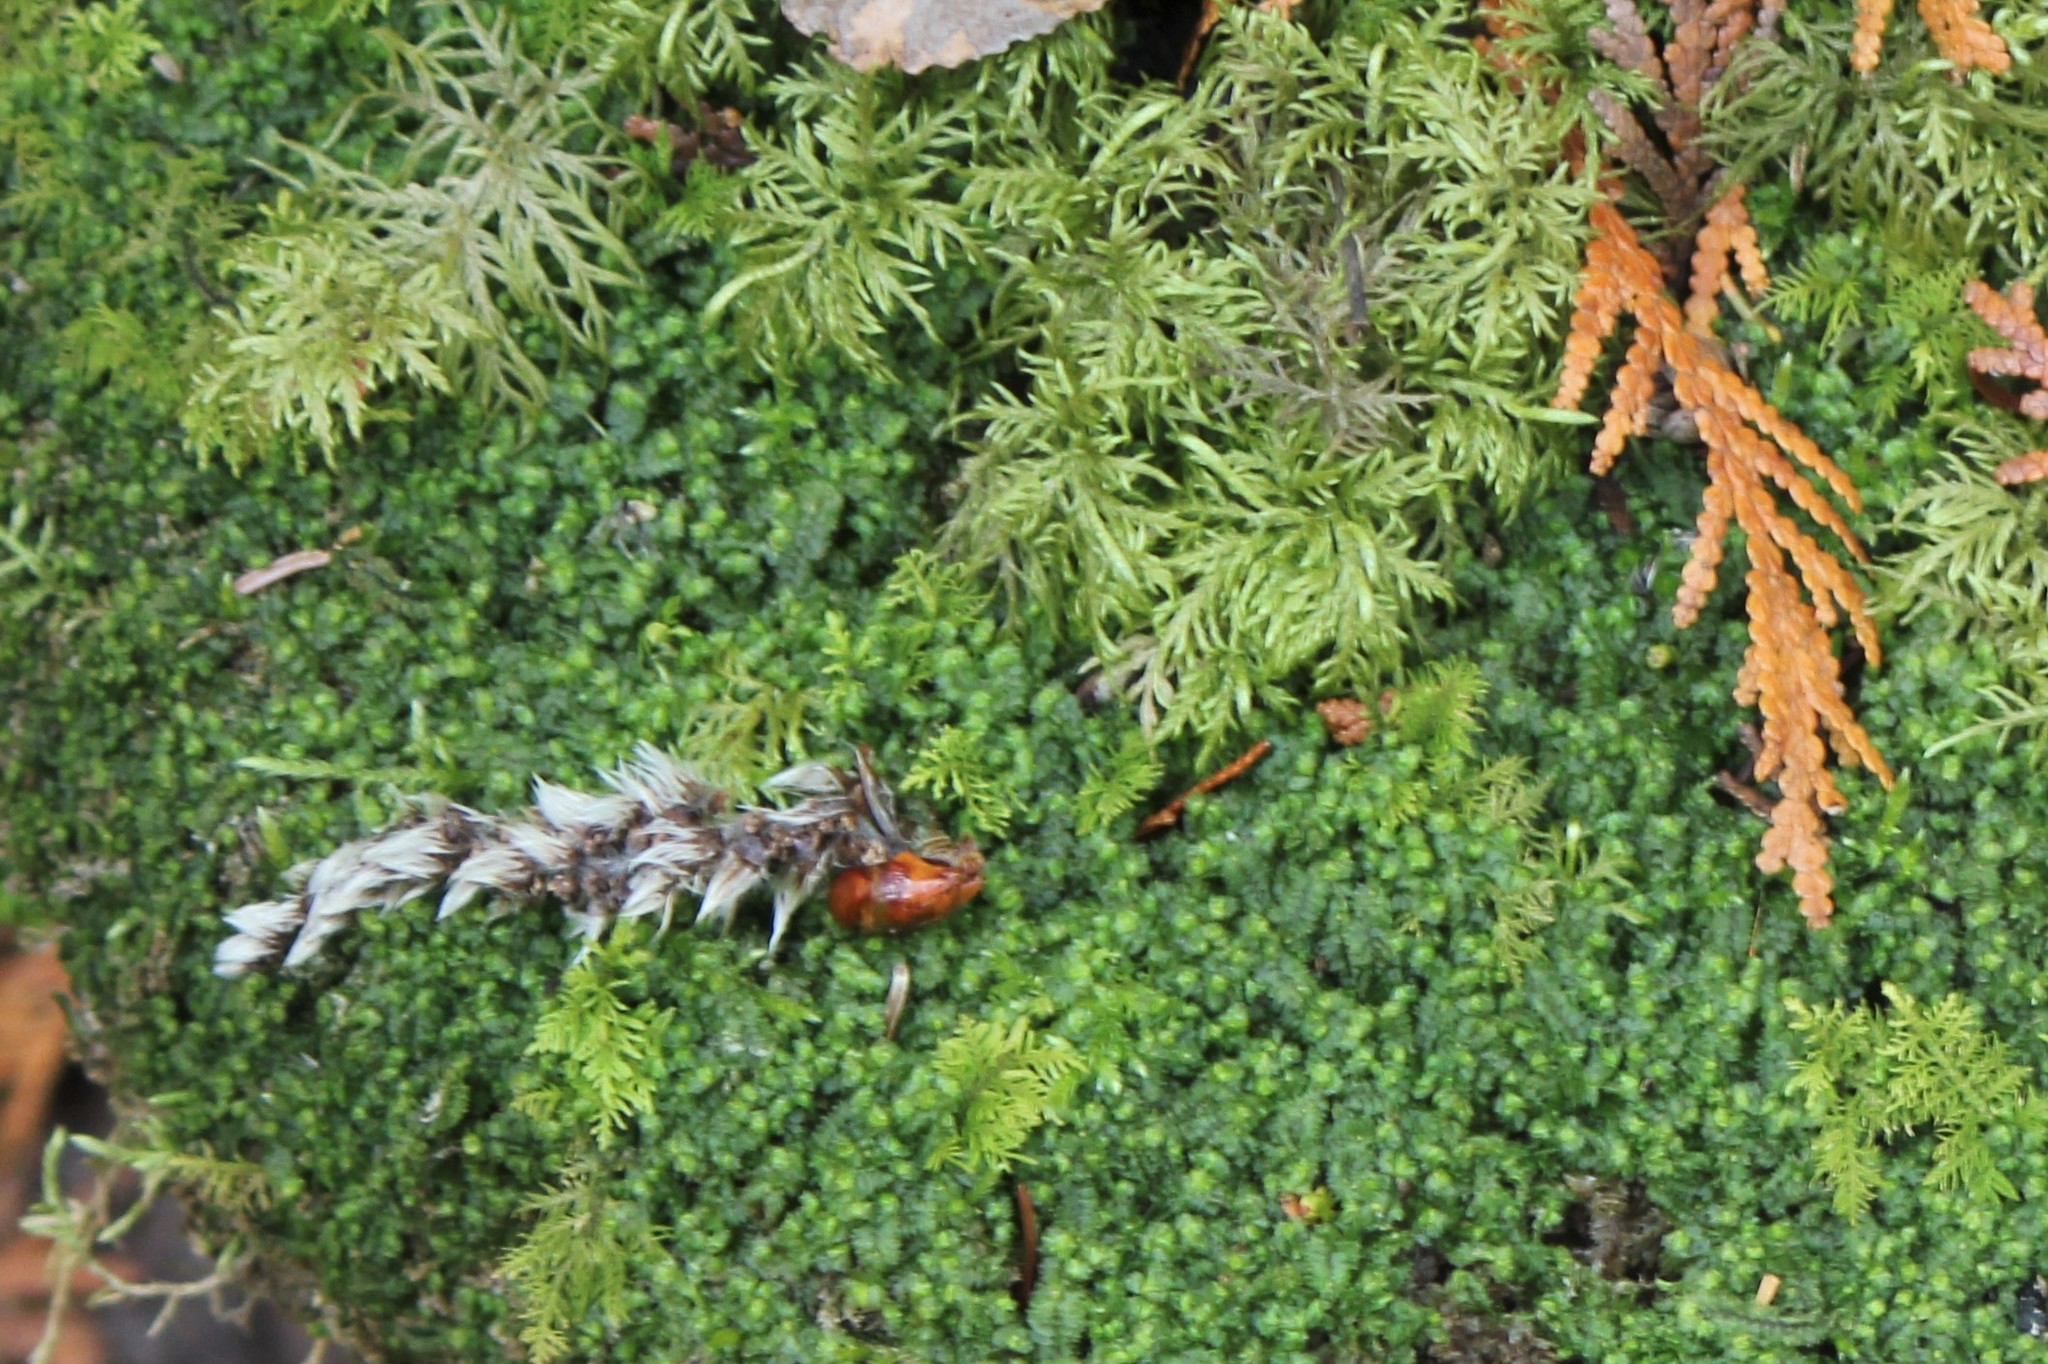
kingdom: Plantae
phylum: Bryophyta
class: Bryopsida
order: Hypnales
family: Hylocomiaceae
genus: Hylocomium
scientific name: Hylocomium splendens
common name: Stairstep moss
